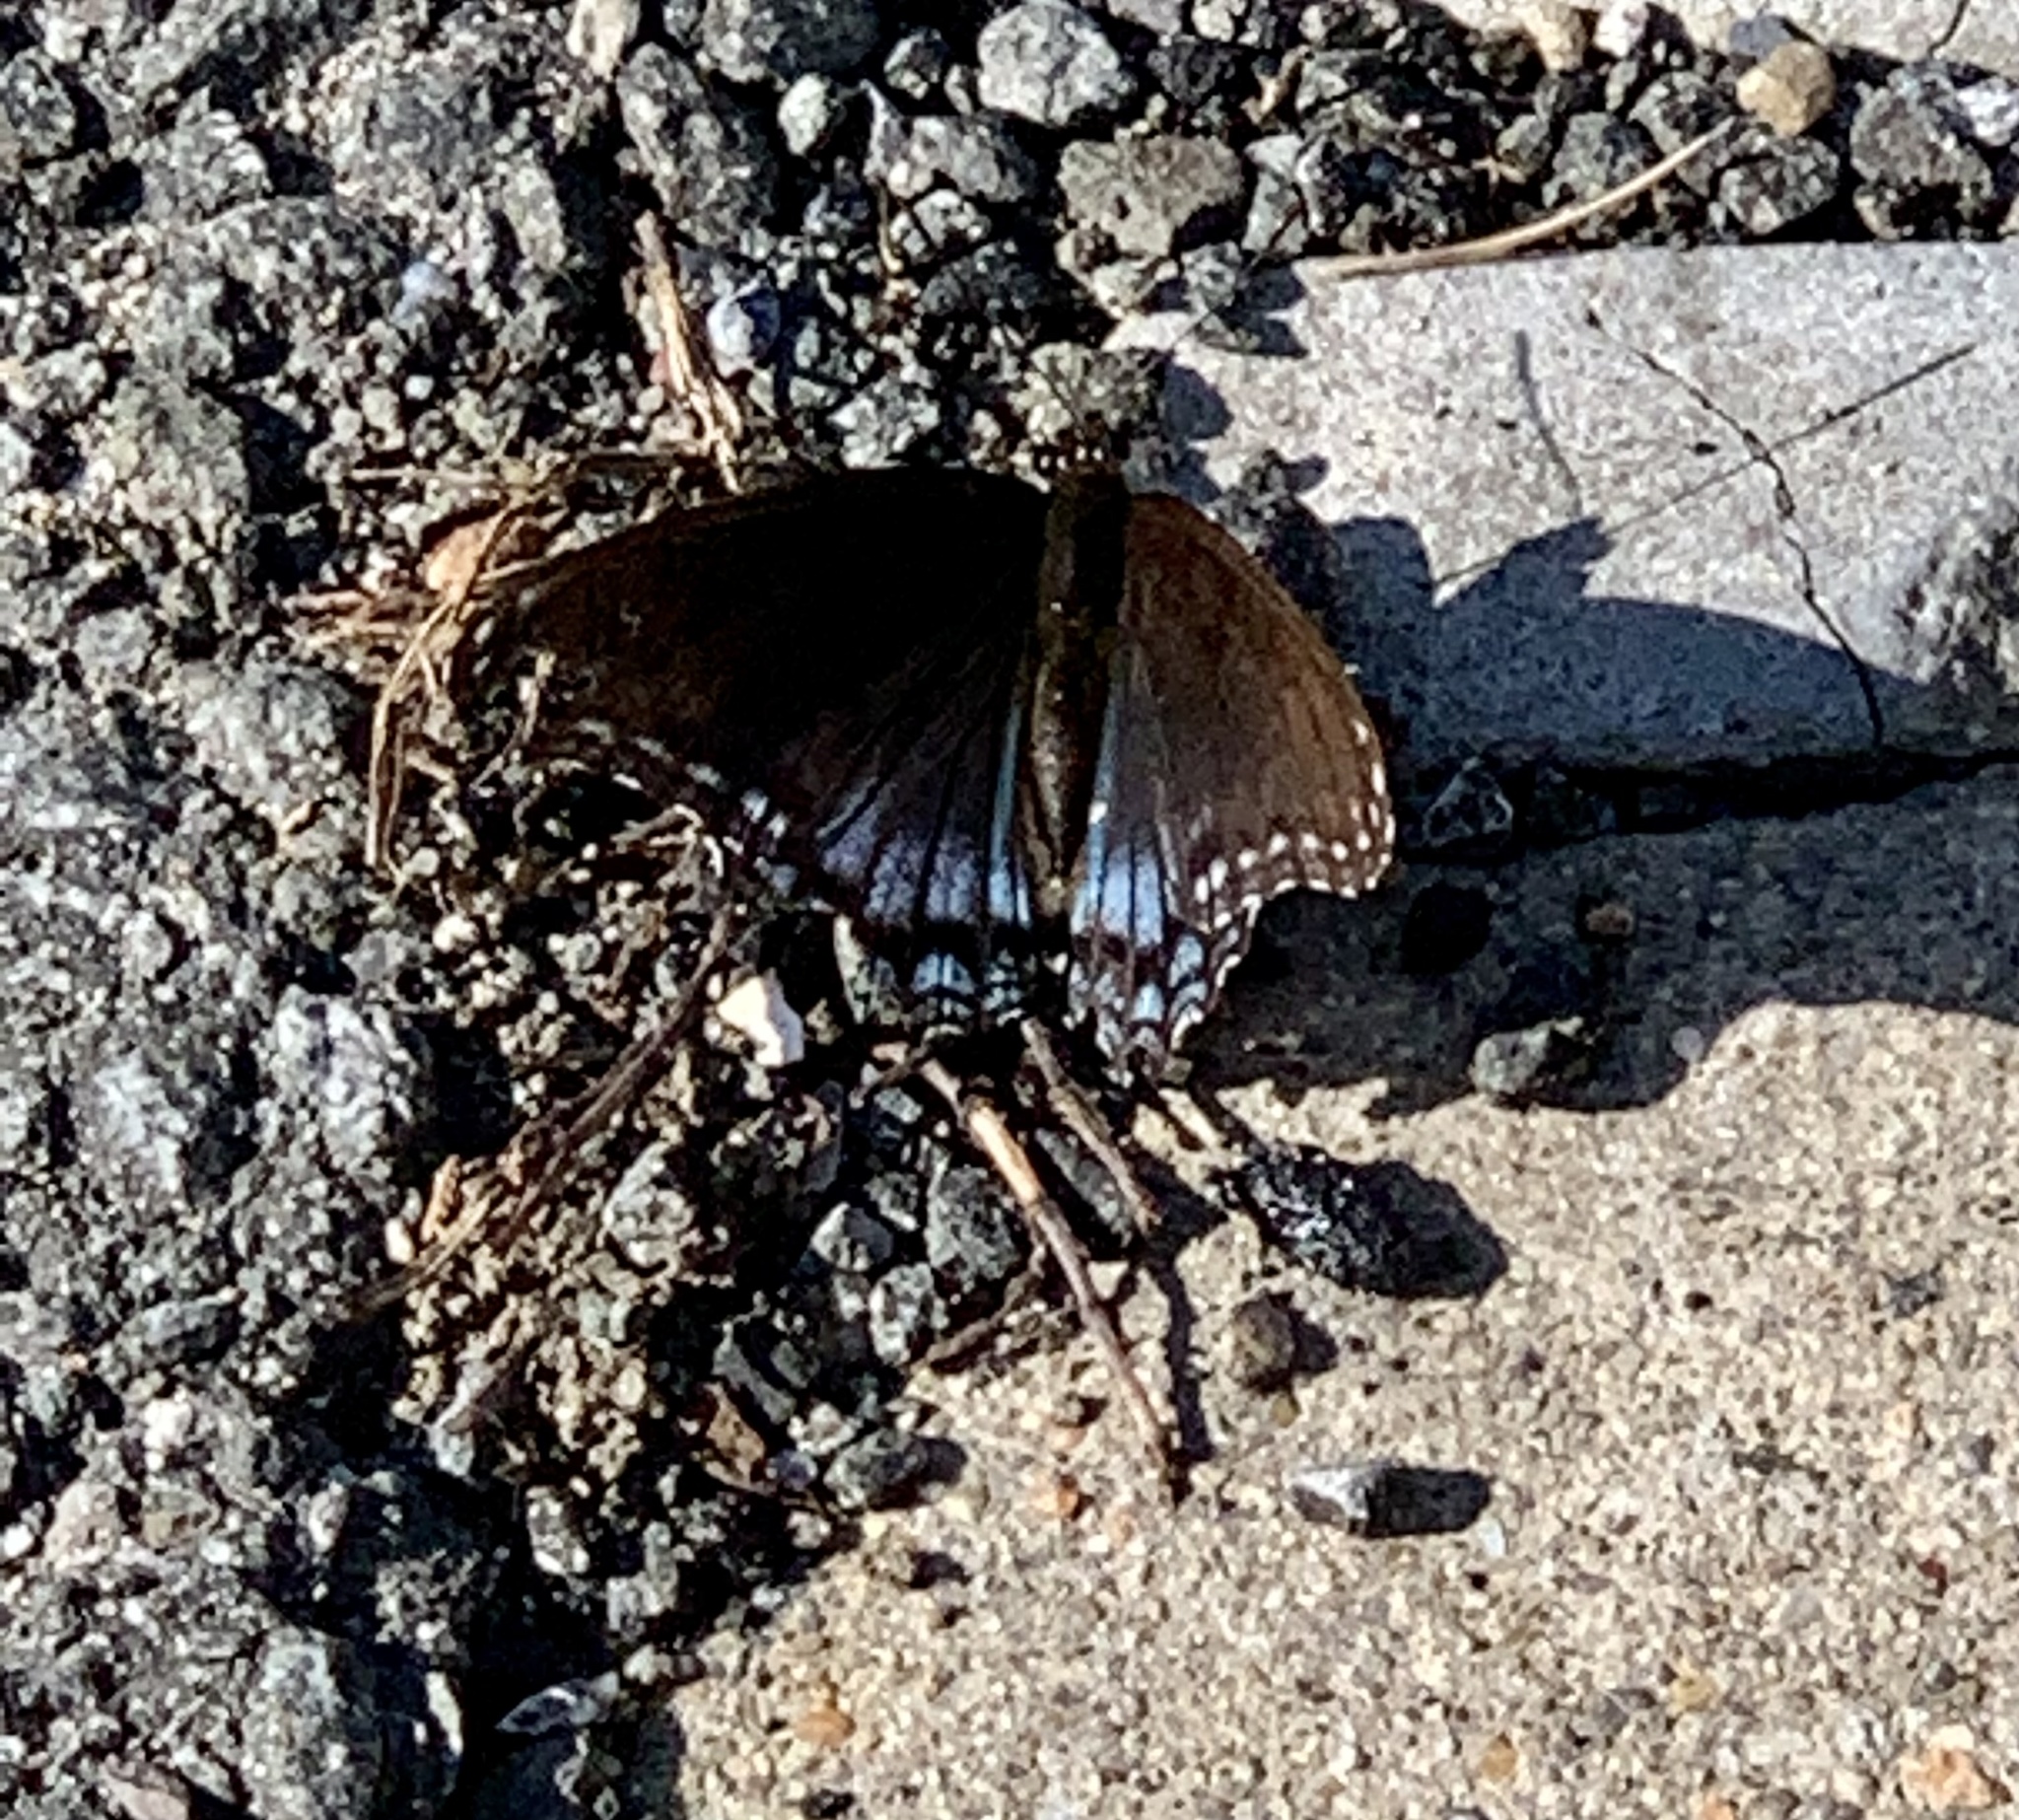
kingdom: Animalia
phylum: Arthropoda
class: Insecta
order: Lepidoptera
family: Nymphalidae
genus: Limenitis
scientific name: Limenitis astyanax
